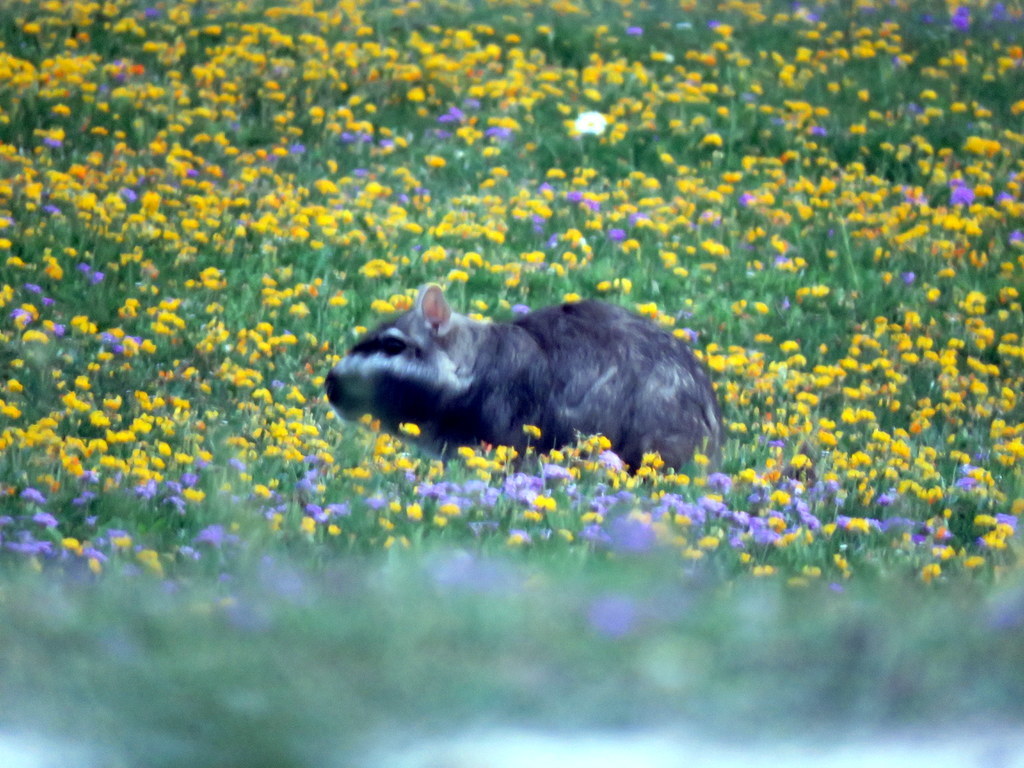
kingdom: Animalia
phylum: Chordata
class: Mammalia
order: Rodentia
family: Chinchillidae
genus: Lagostomus
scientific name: Lagostomus maximus
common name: Plains viscacha
